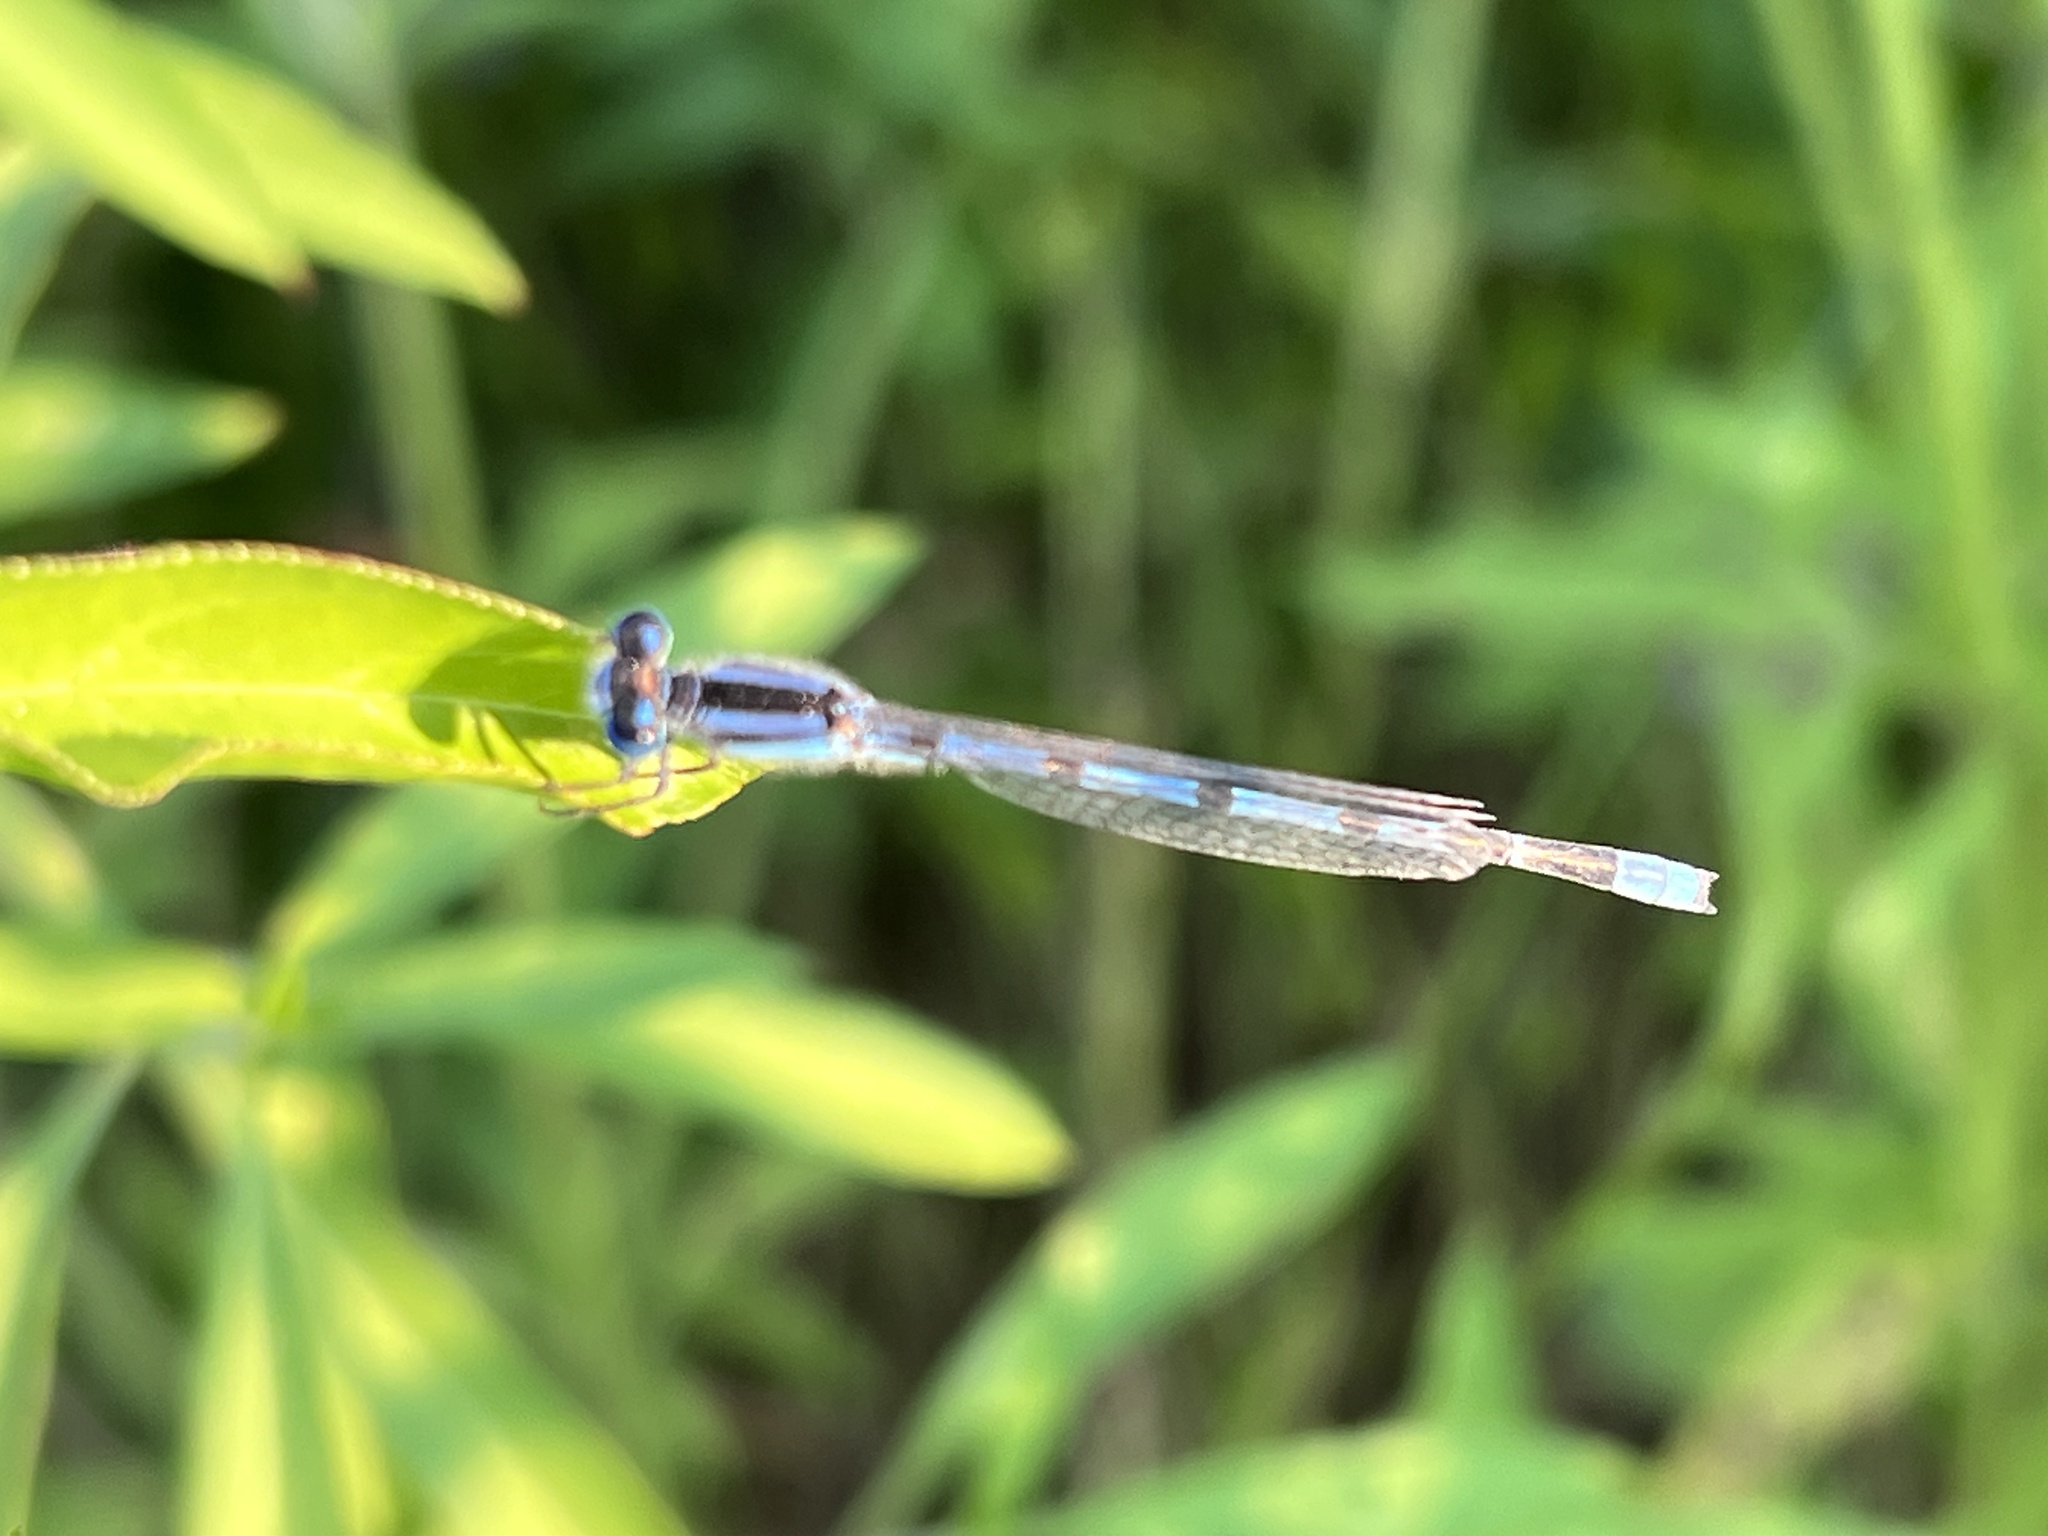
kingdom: Animalia
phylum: Arthropoda
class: Insecta
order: Odonata
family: Coenagrionidae
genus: Enallagma
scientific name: Enallagma civile
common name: Damselfly
